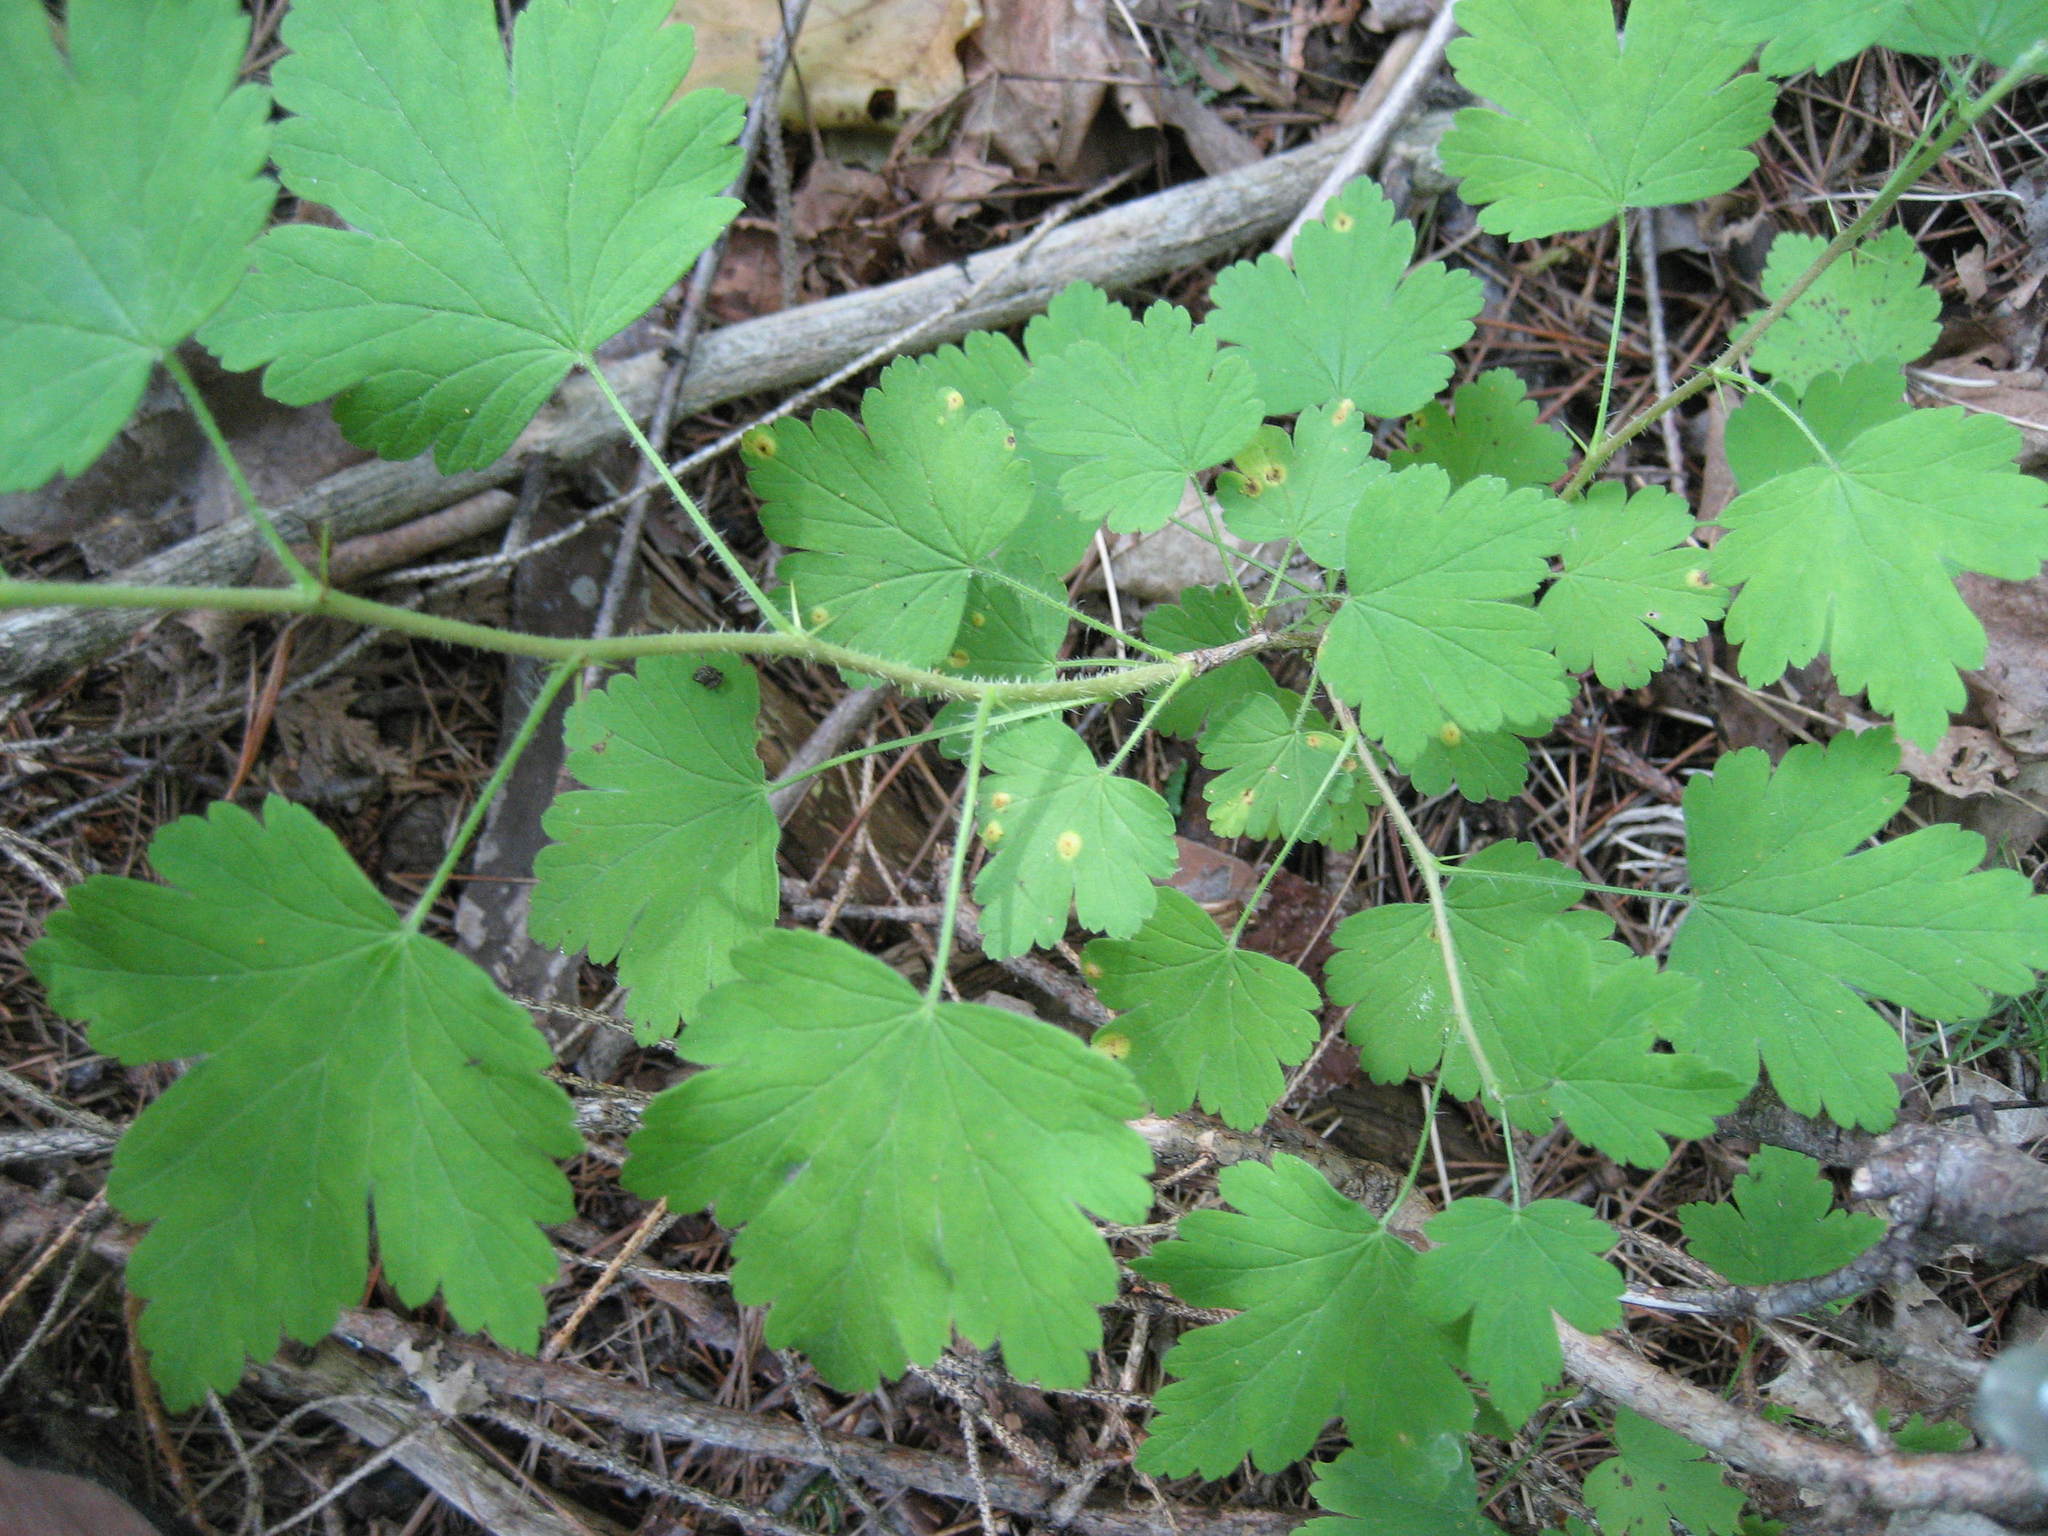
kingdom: Plantae
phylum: Tracheophyta
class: Magnoliopsida
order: Saxifragales
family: Grossulariaceae
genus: Ribes
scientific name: Ribes cynosbati
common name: American gooseberry
